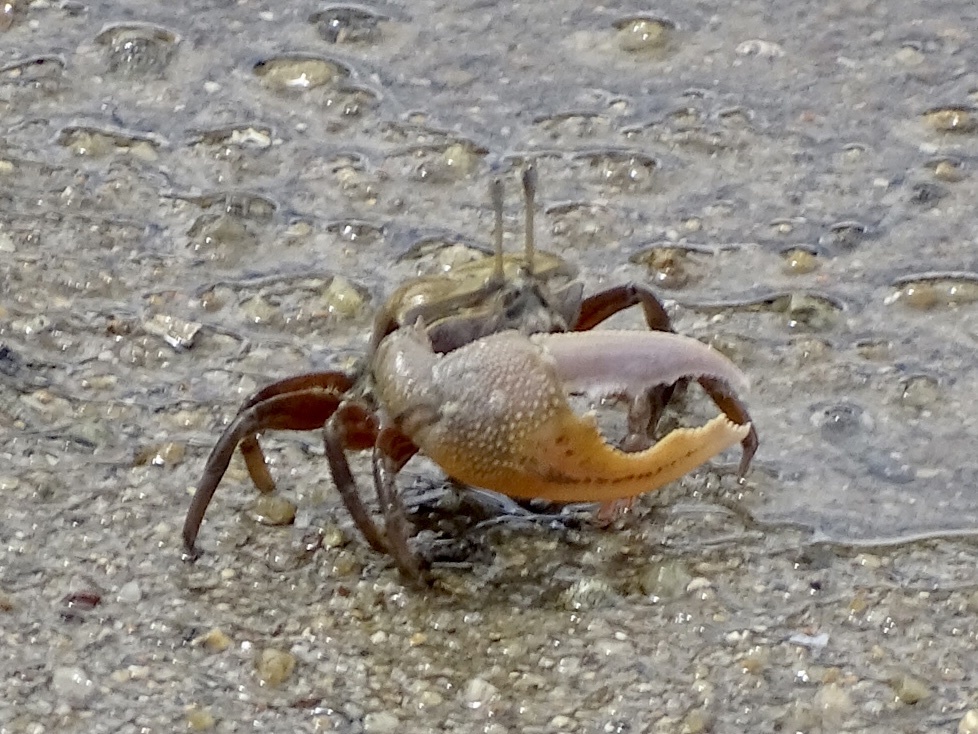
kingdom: Animalia
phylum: Arthropoda
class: Malacostraca
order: Decapoda
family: Ocypodidae
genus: Gelasimus
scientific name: Gelasimus borealis
